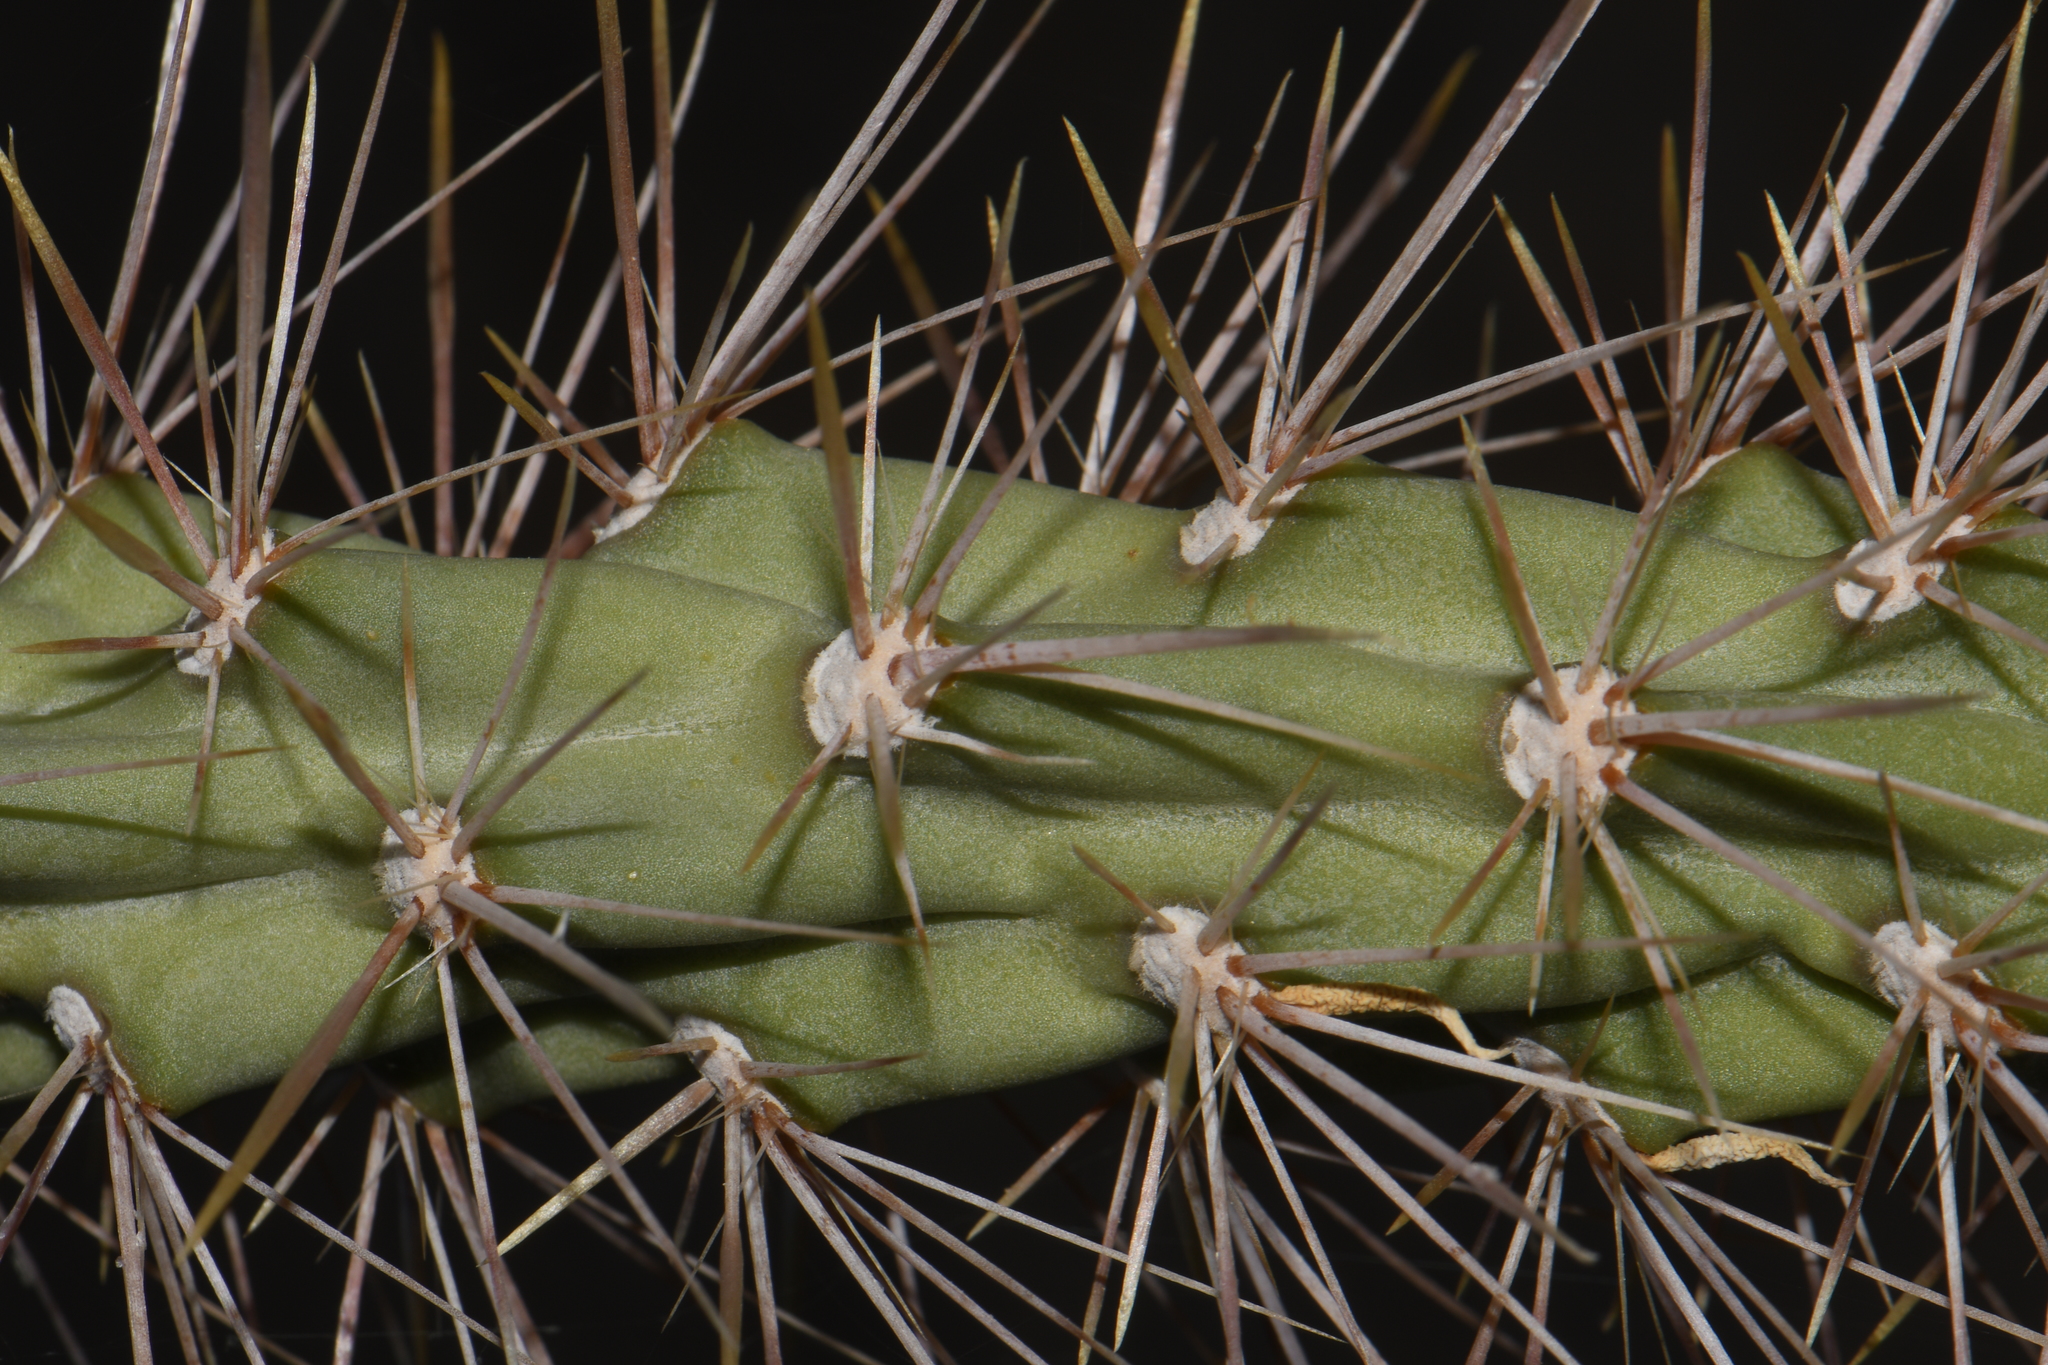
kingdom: Plantae
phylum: Tracheophyta
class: Magnoliopsida
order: Caryophyllales
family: Cactaceae
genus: Cylindropuntia
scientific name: Cylindropuntia acanthocarpa
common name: Buckhorn cholla
